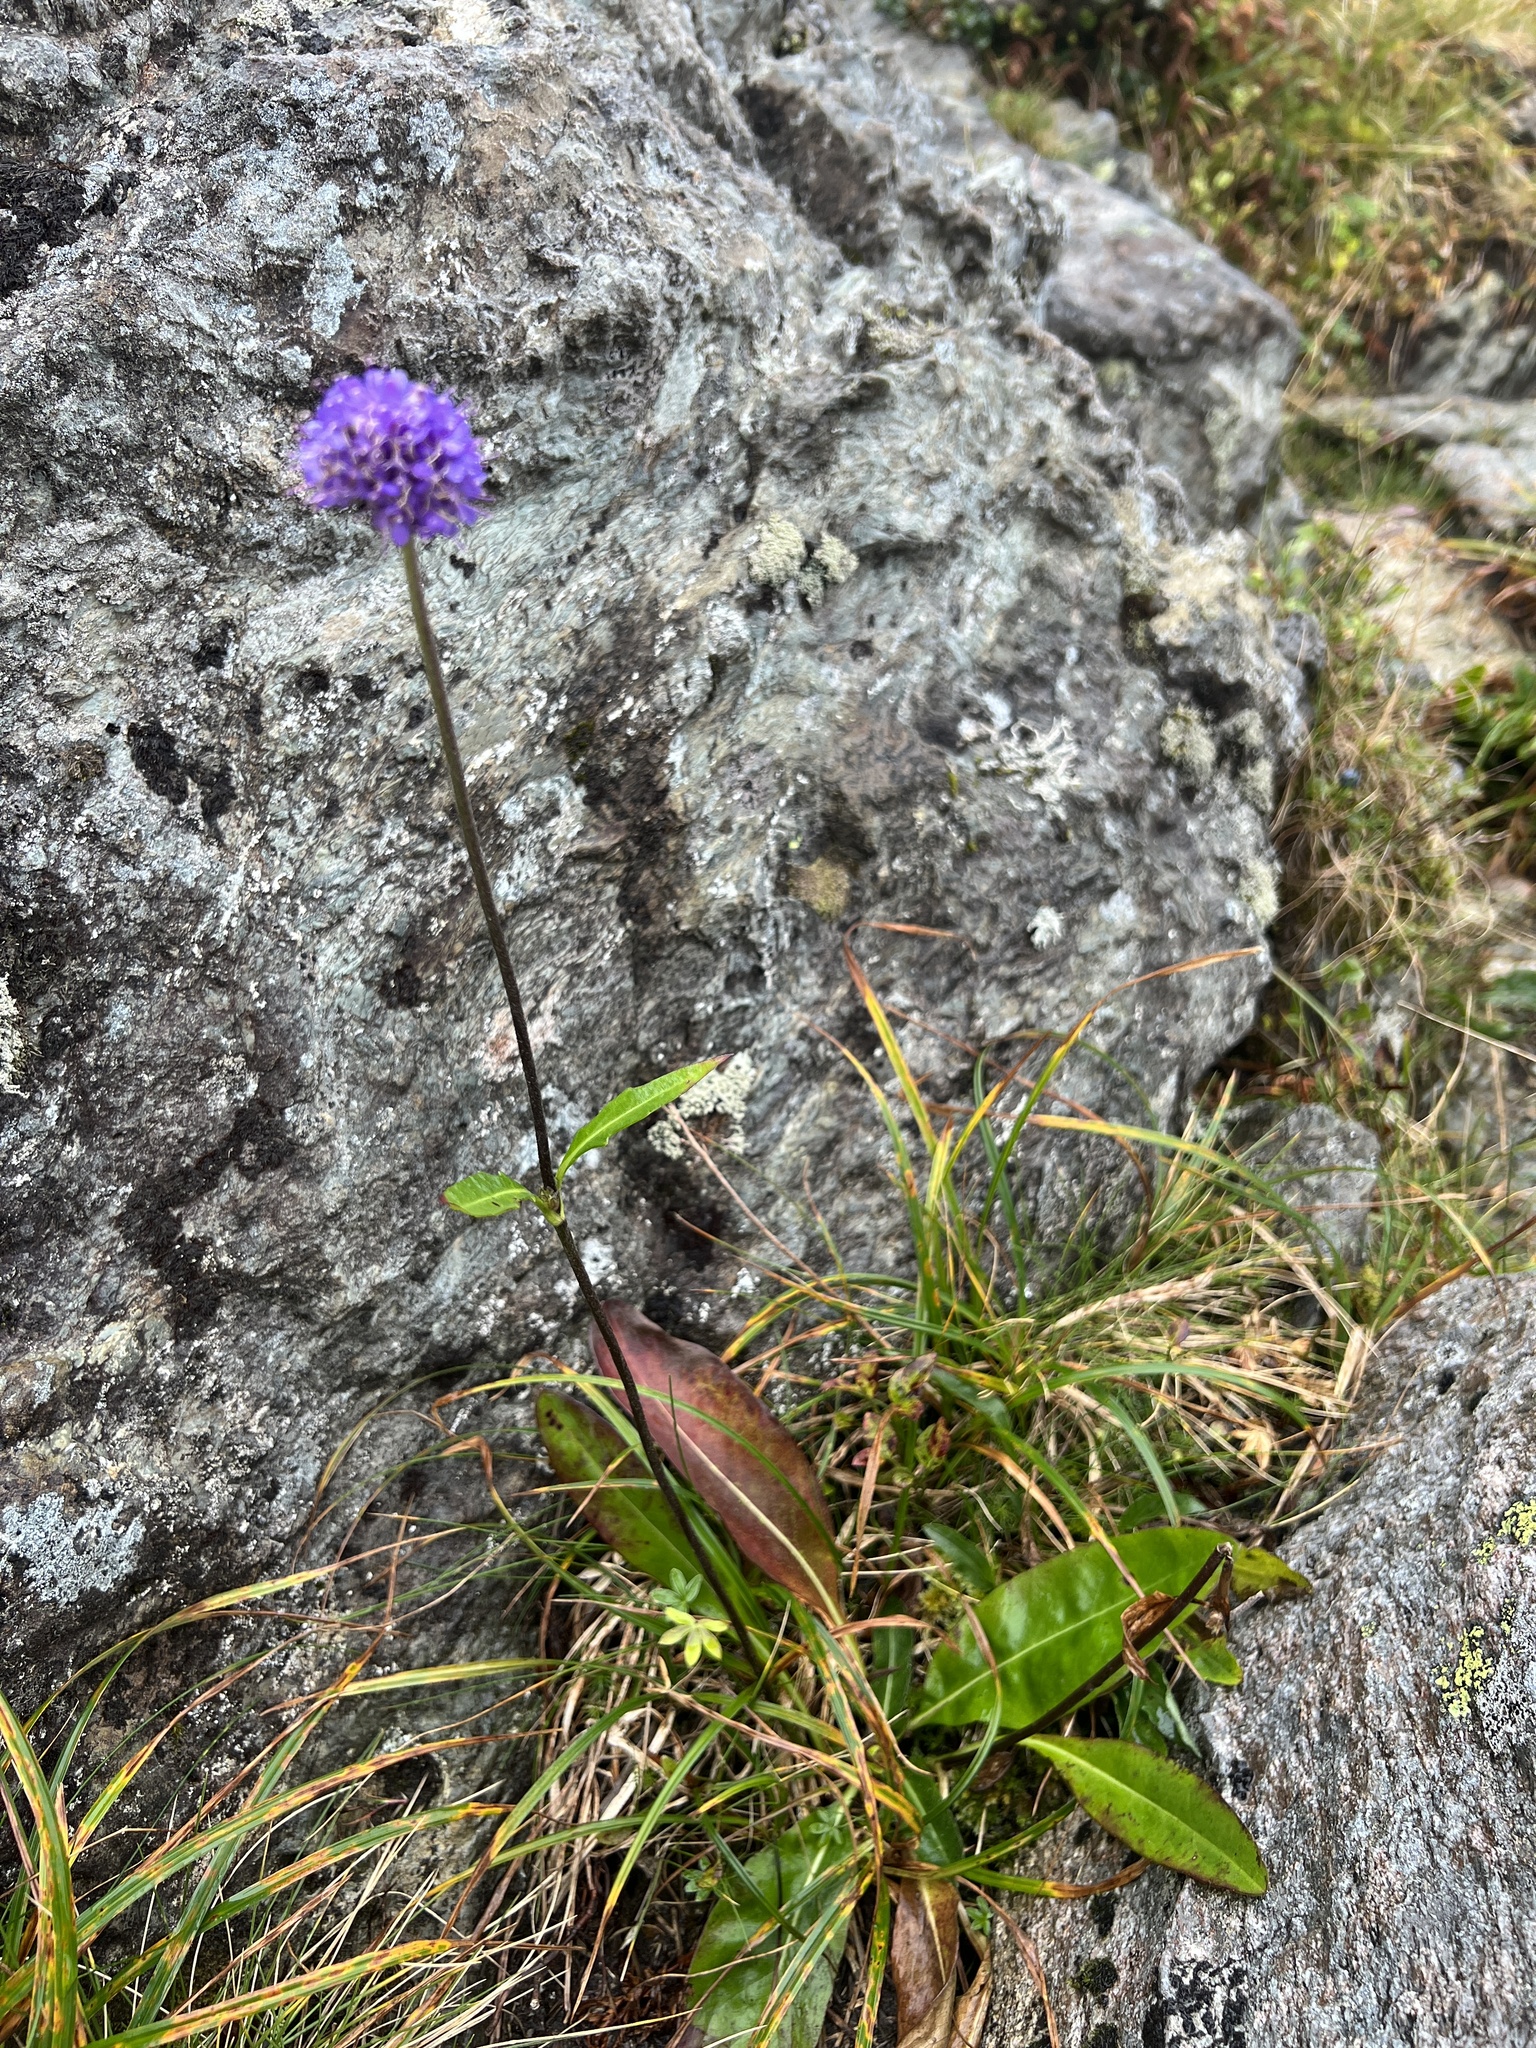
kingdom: Plantae
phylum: Tracheophyta
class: Magnoliopsida
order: Dipsacales
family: Caprifoliaceae
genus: Succisa
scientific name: Succisa pratensis
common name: Devil's-bit
